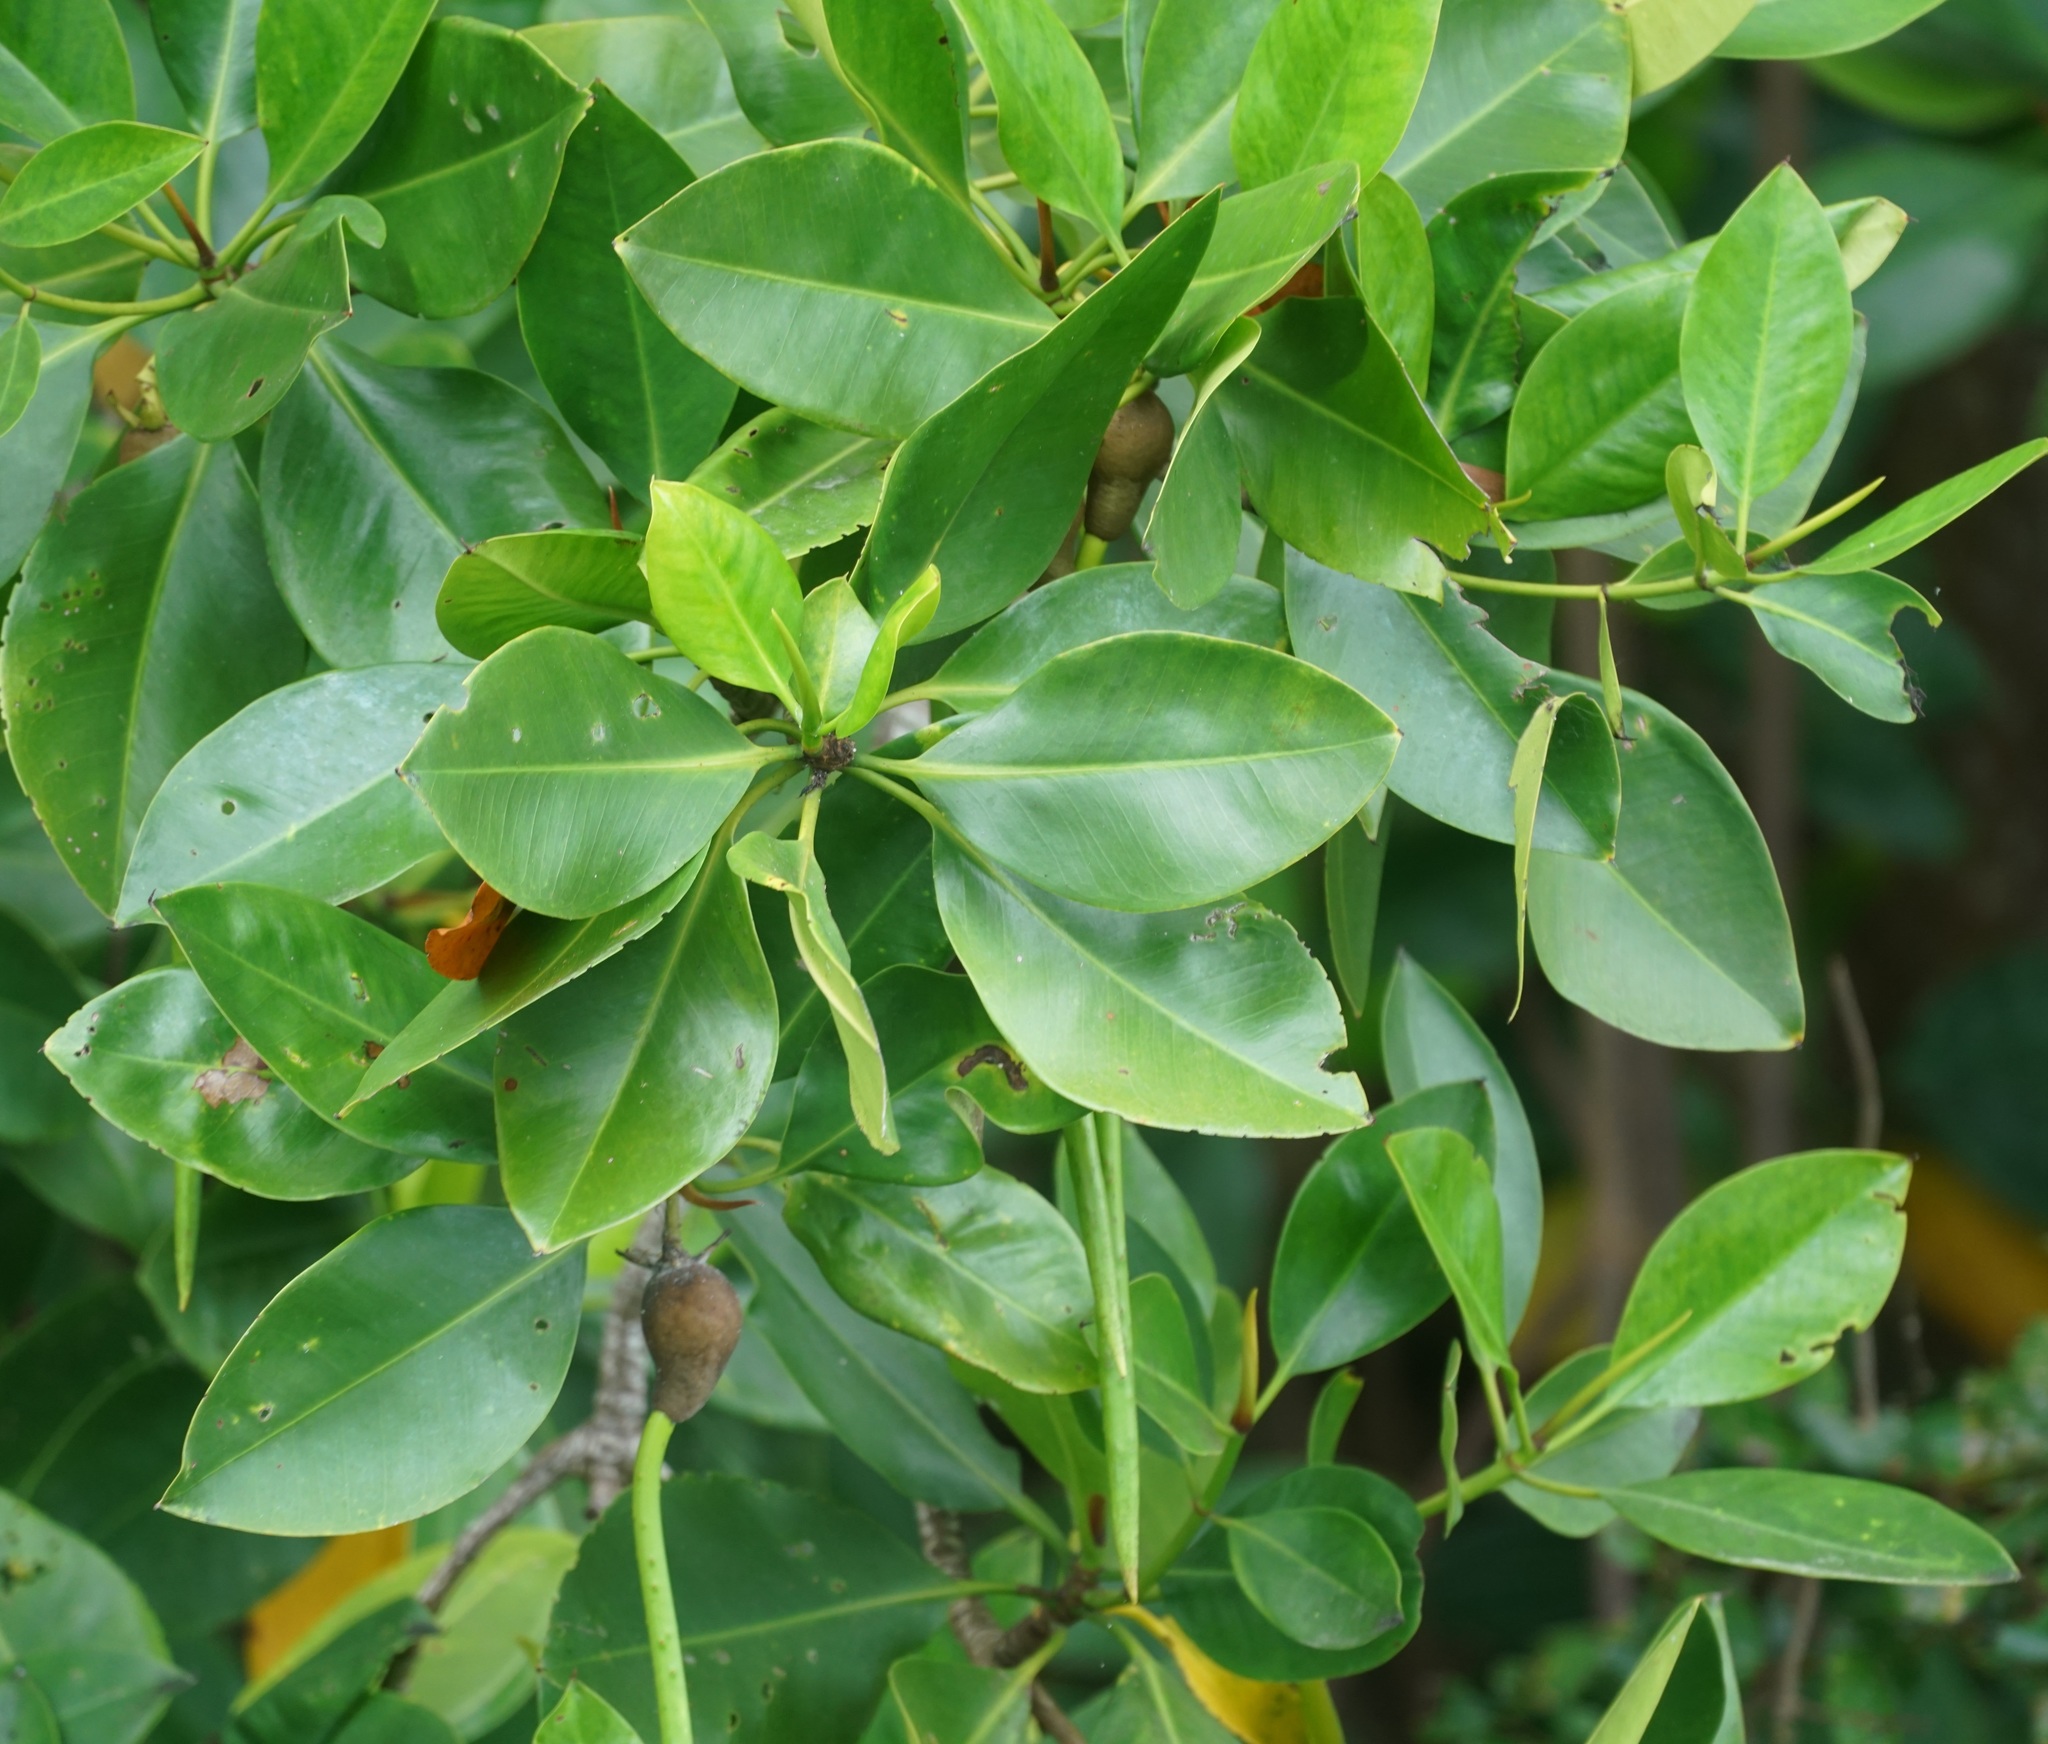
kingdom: Plantae
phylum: Tracheophyta
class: Magnoliopsida
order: Malpighiales
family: Rhizophoraceae
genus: Rhizophora
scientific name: Rhizophora mucronata
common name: Loop-root mangrove
